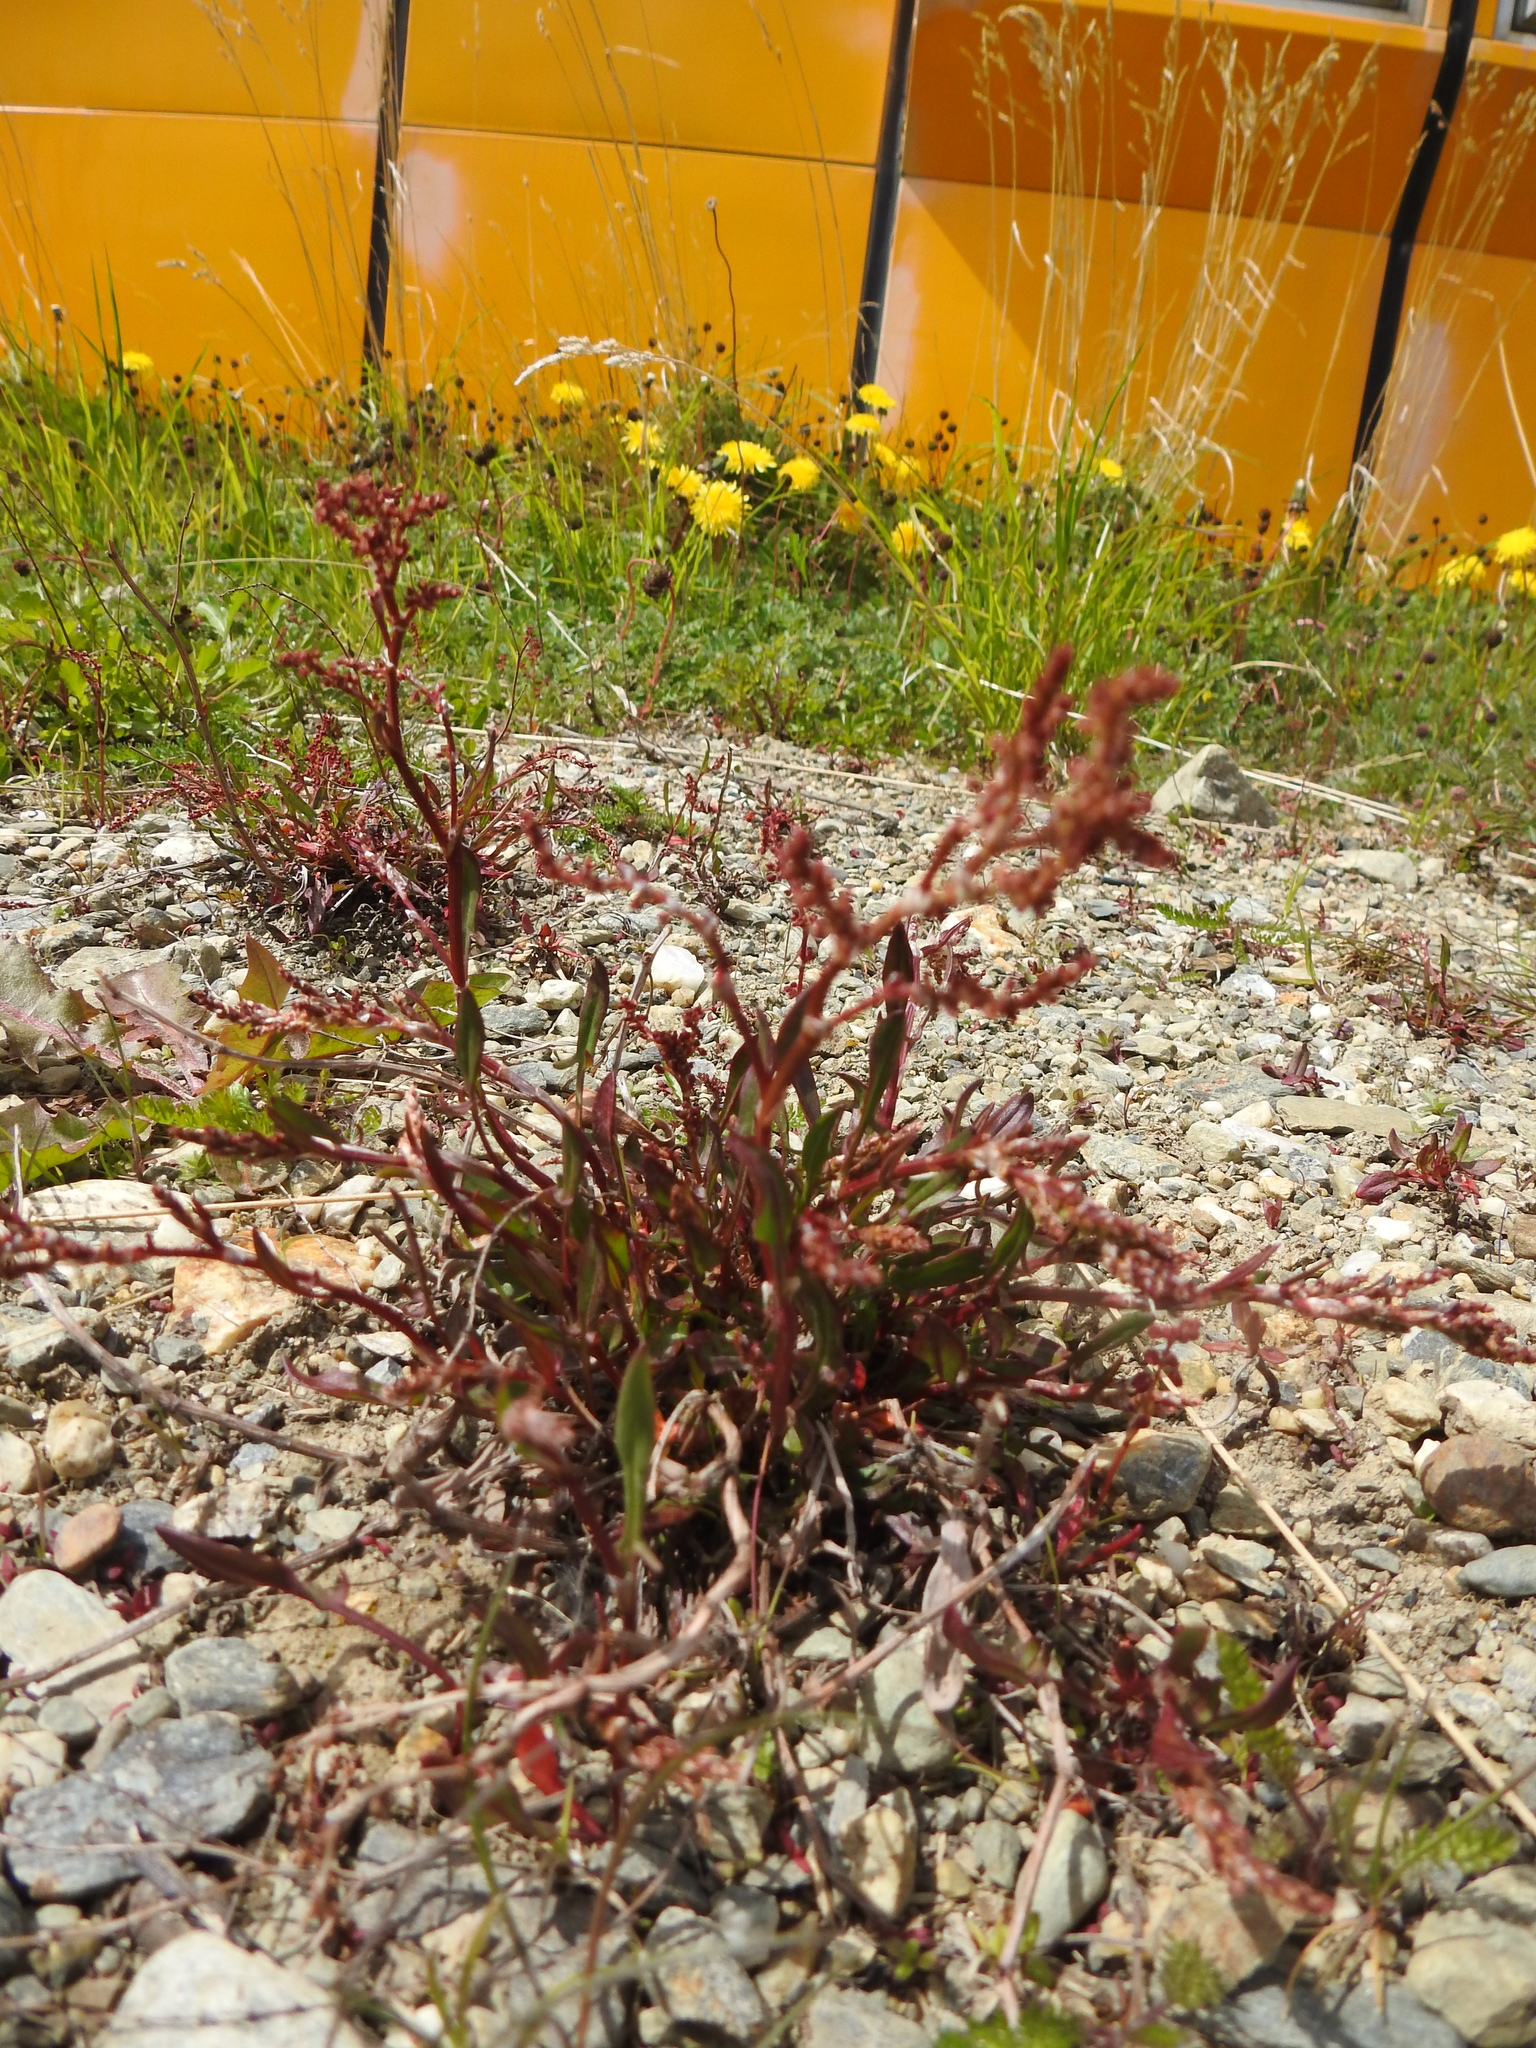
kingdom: Plantae
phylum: Tracheophyta
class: Magnoliopsida
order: Caryophyllales
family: Polygonaceae
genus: Rumex
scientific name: Rumex acetosella
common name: Common sheep sorrel
